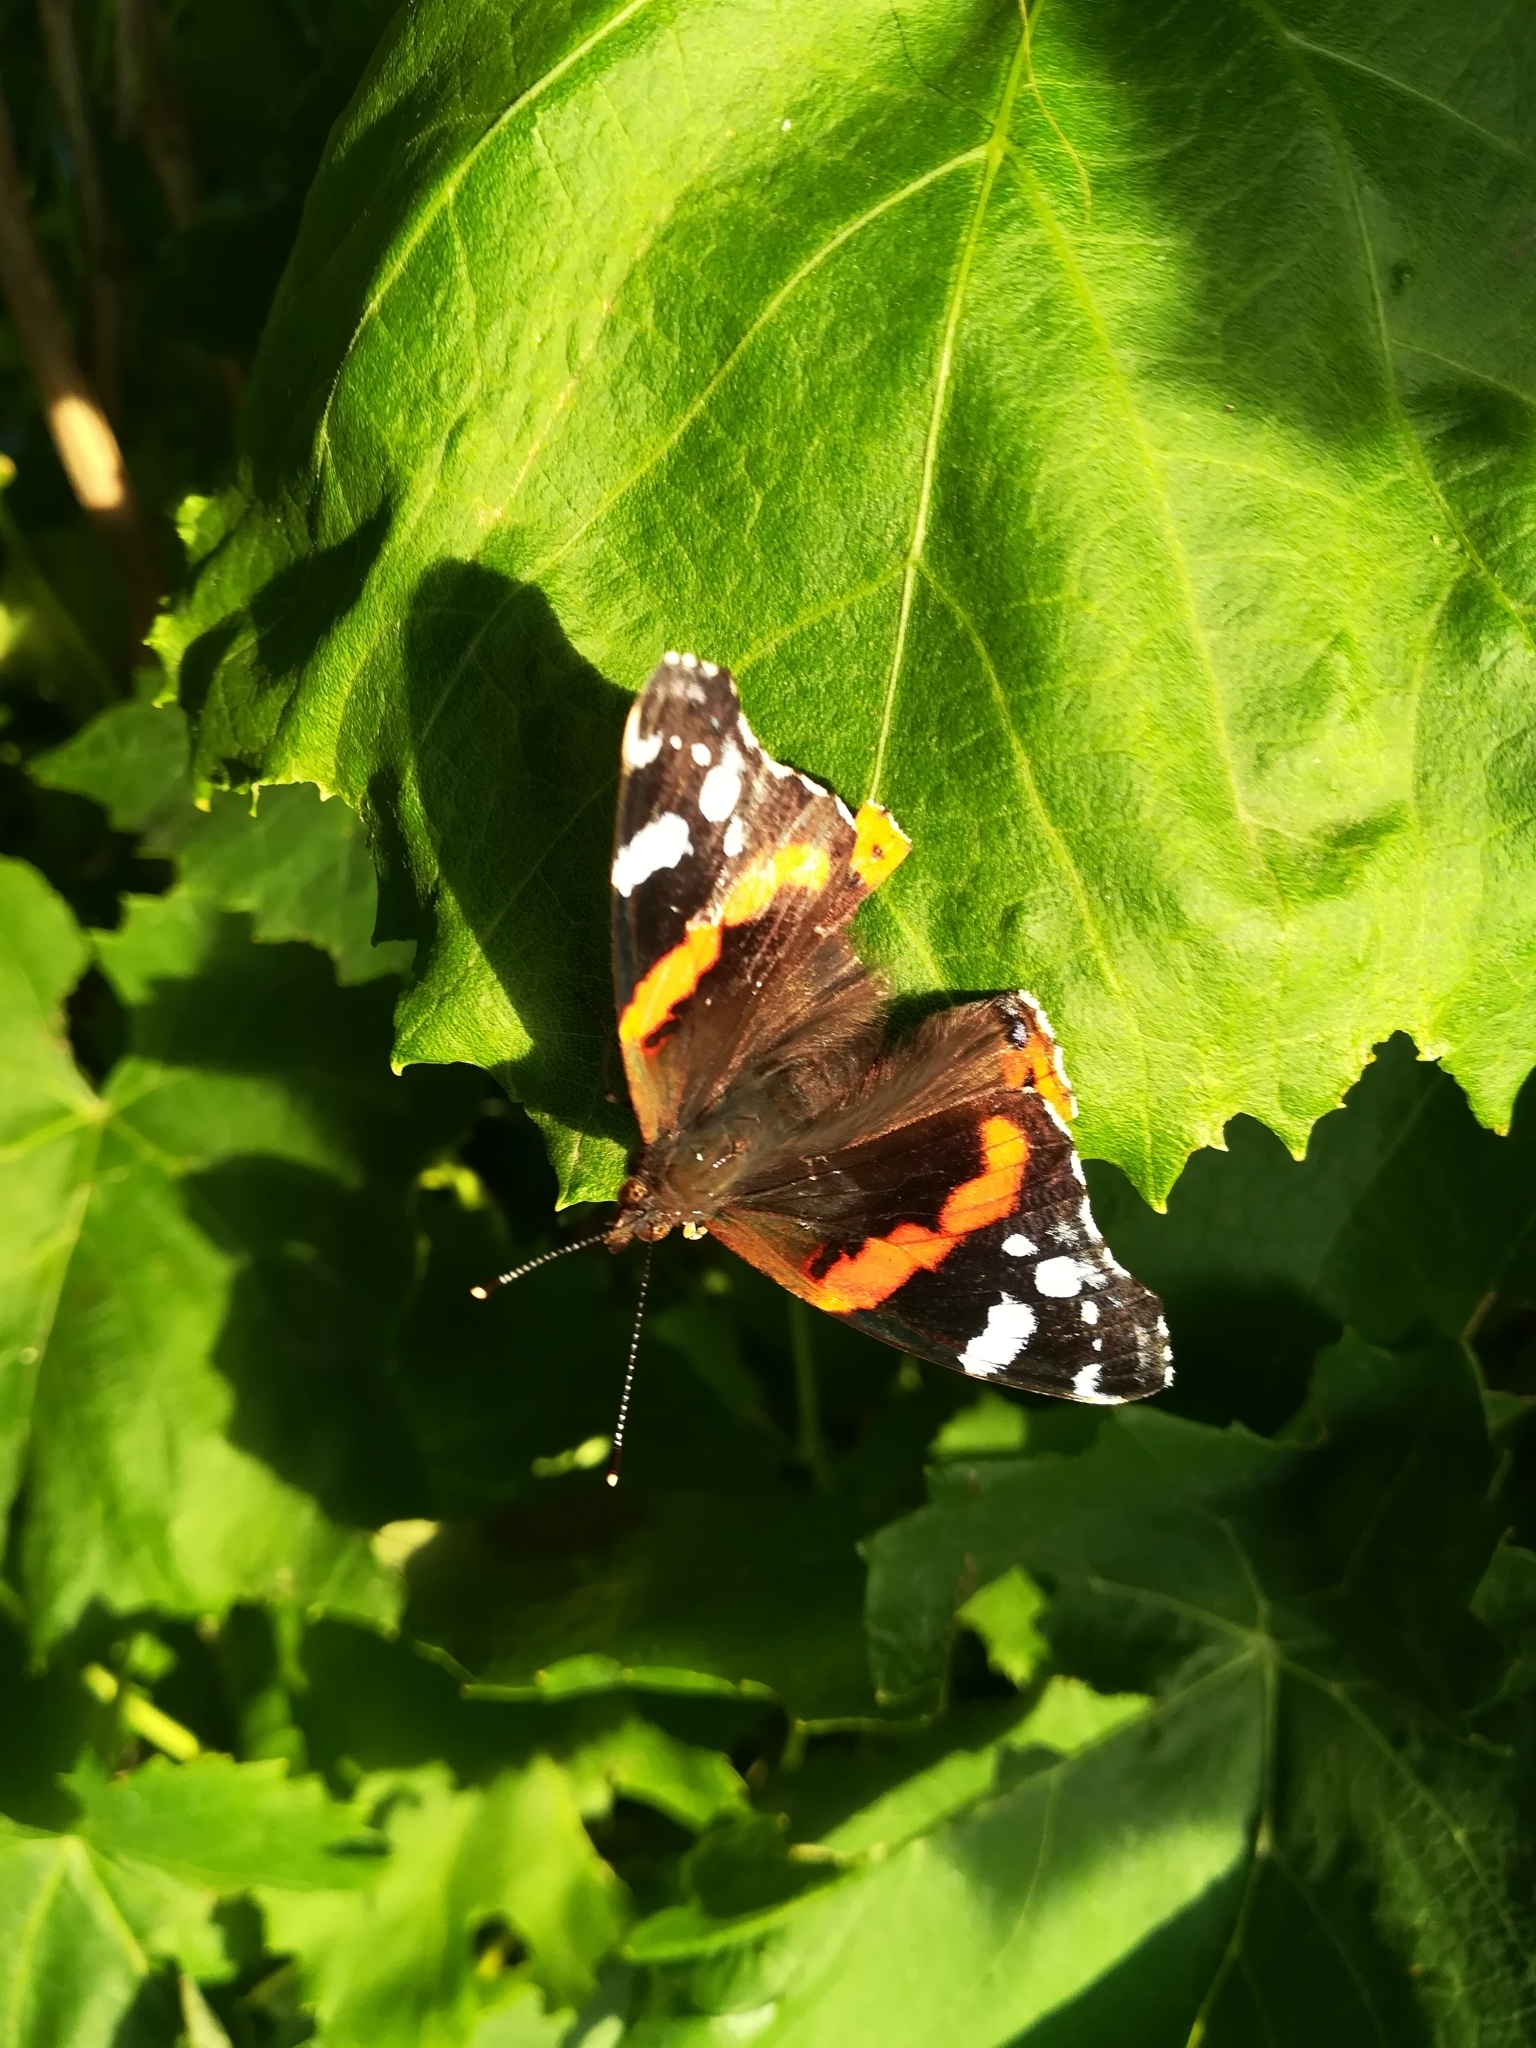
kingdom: Animalia
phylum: Arthropoda
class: Insecta
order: Lepidoptera
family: Nymphalidae
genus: Vanessa
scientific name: Vanessa atalanta
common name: Red admiral
